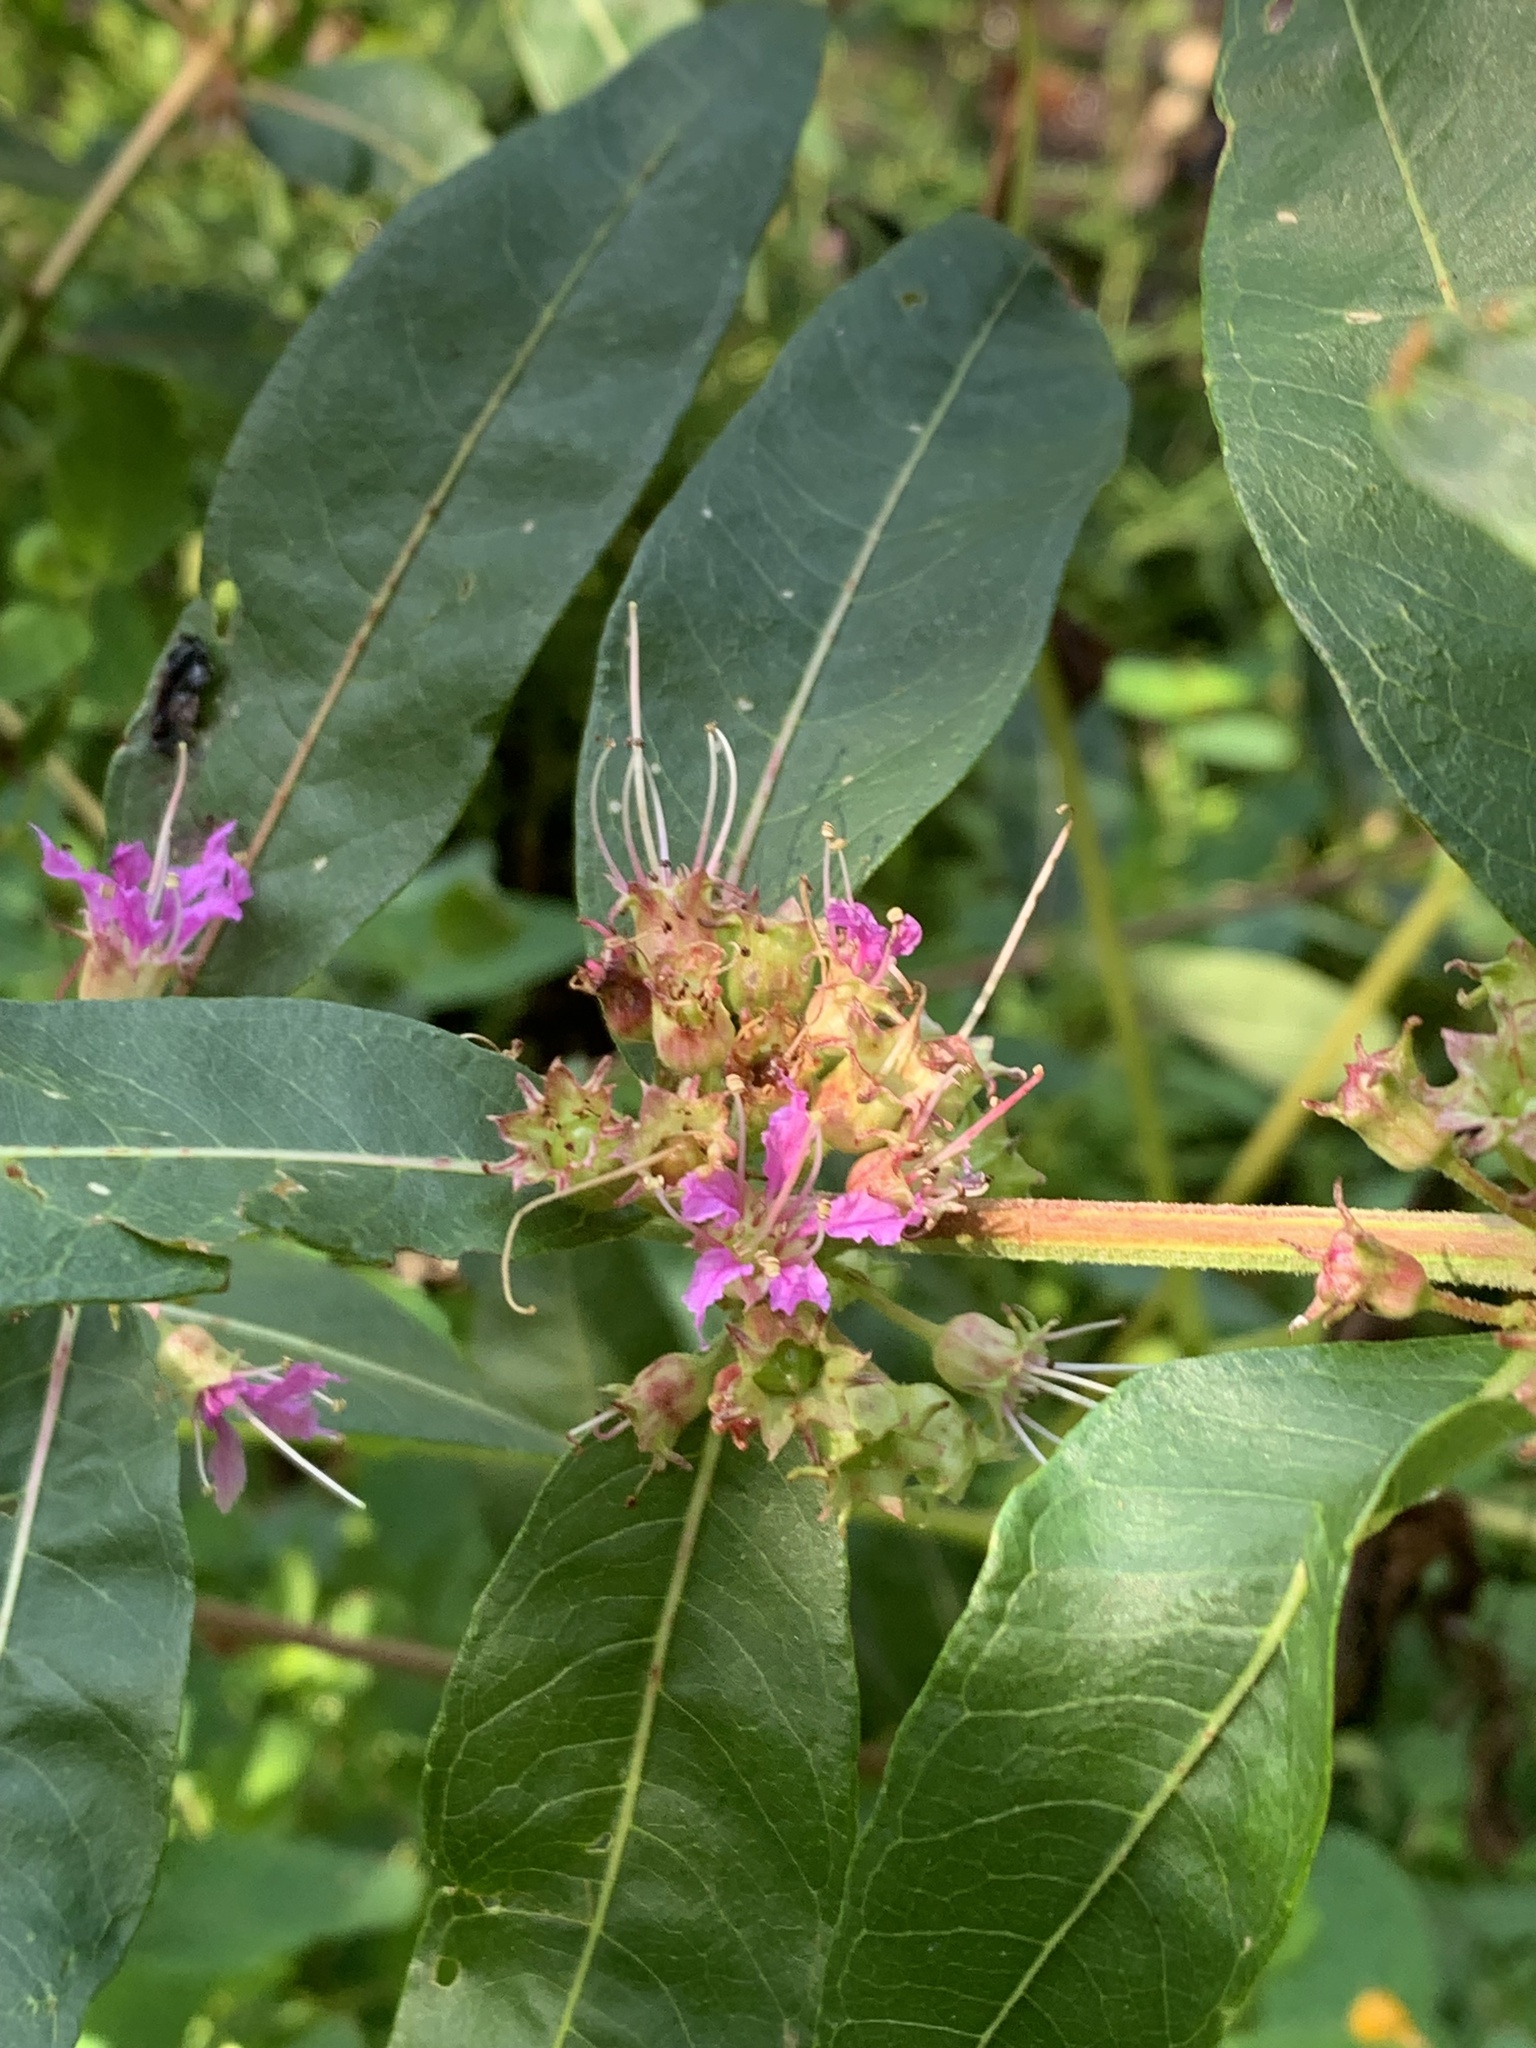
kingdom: Plantae
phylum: Tracheophyta
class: Magnoliopsida
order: Myrtales
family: Lythraceae
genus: Decodon
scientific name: Decodon verticillatus
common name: Hairy swamp loosestrife
